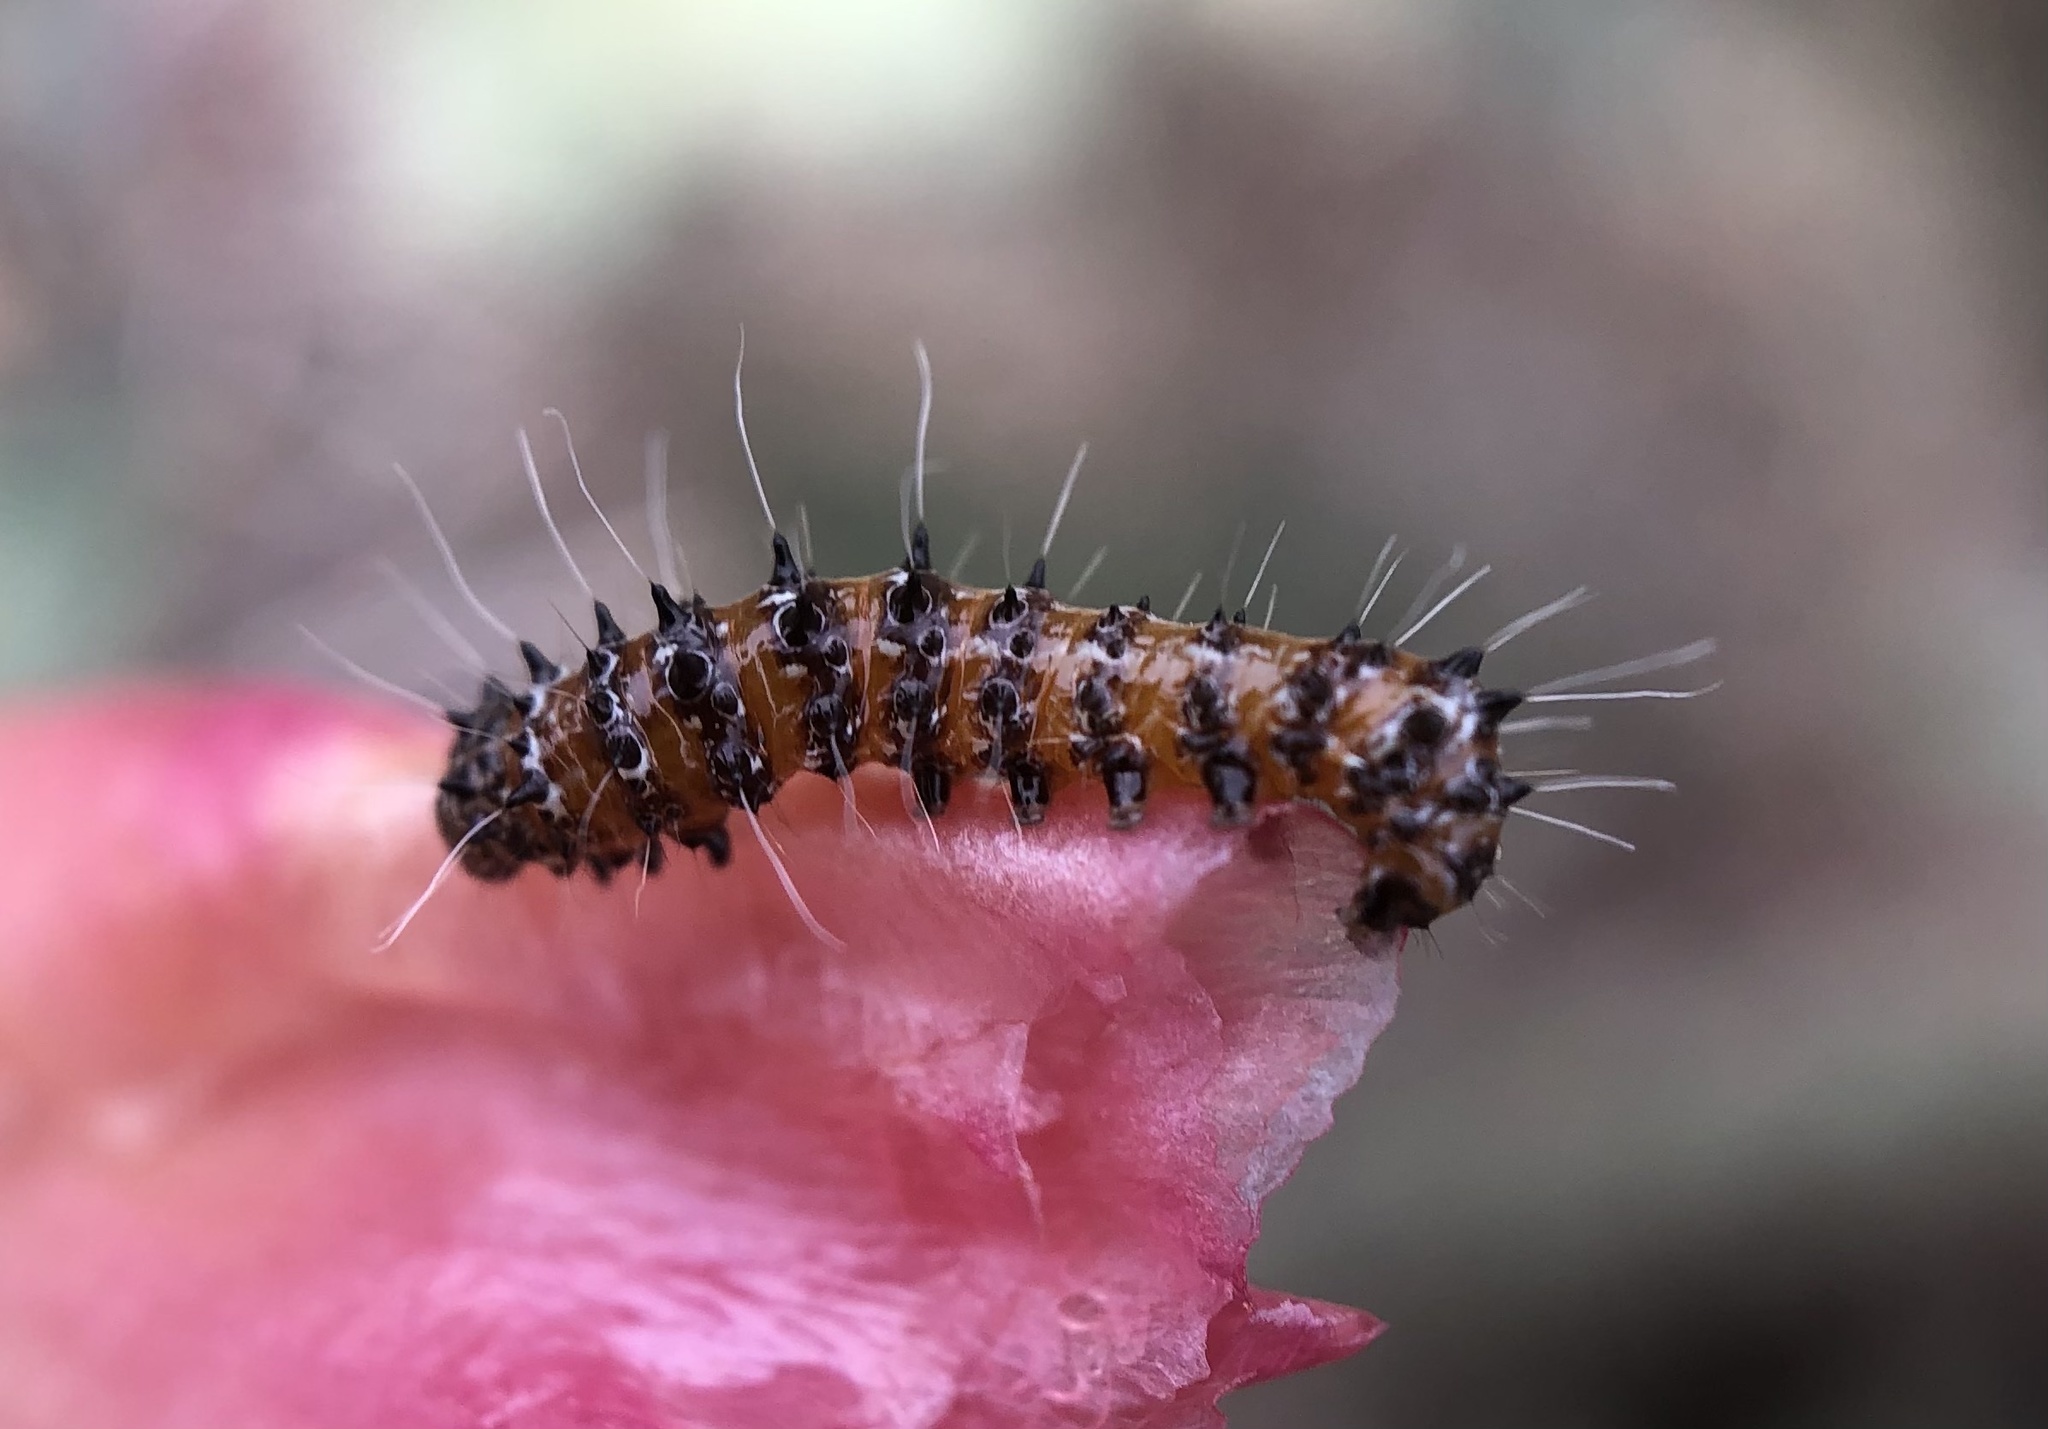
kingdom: Animalia
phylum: Arthropoda
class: Insecta
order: Lepidoptera
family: Noctuidae
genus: Euscirrhopterus
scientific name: Euscirrhopterus cosyra
